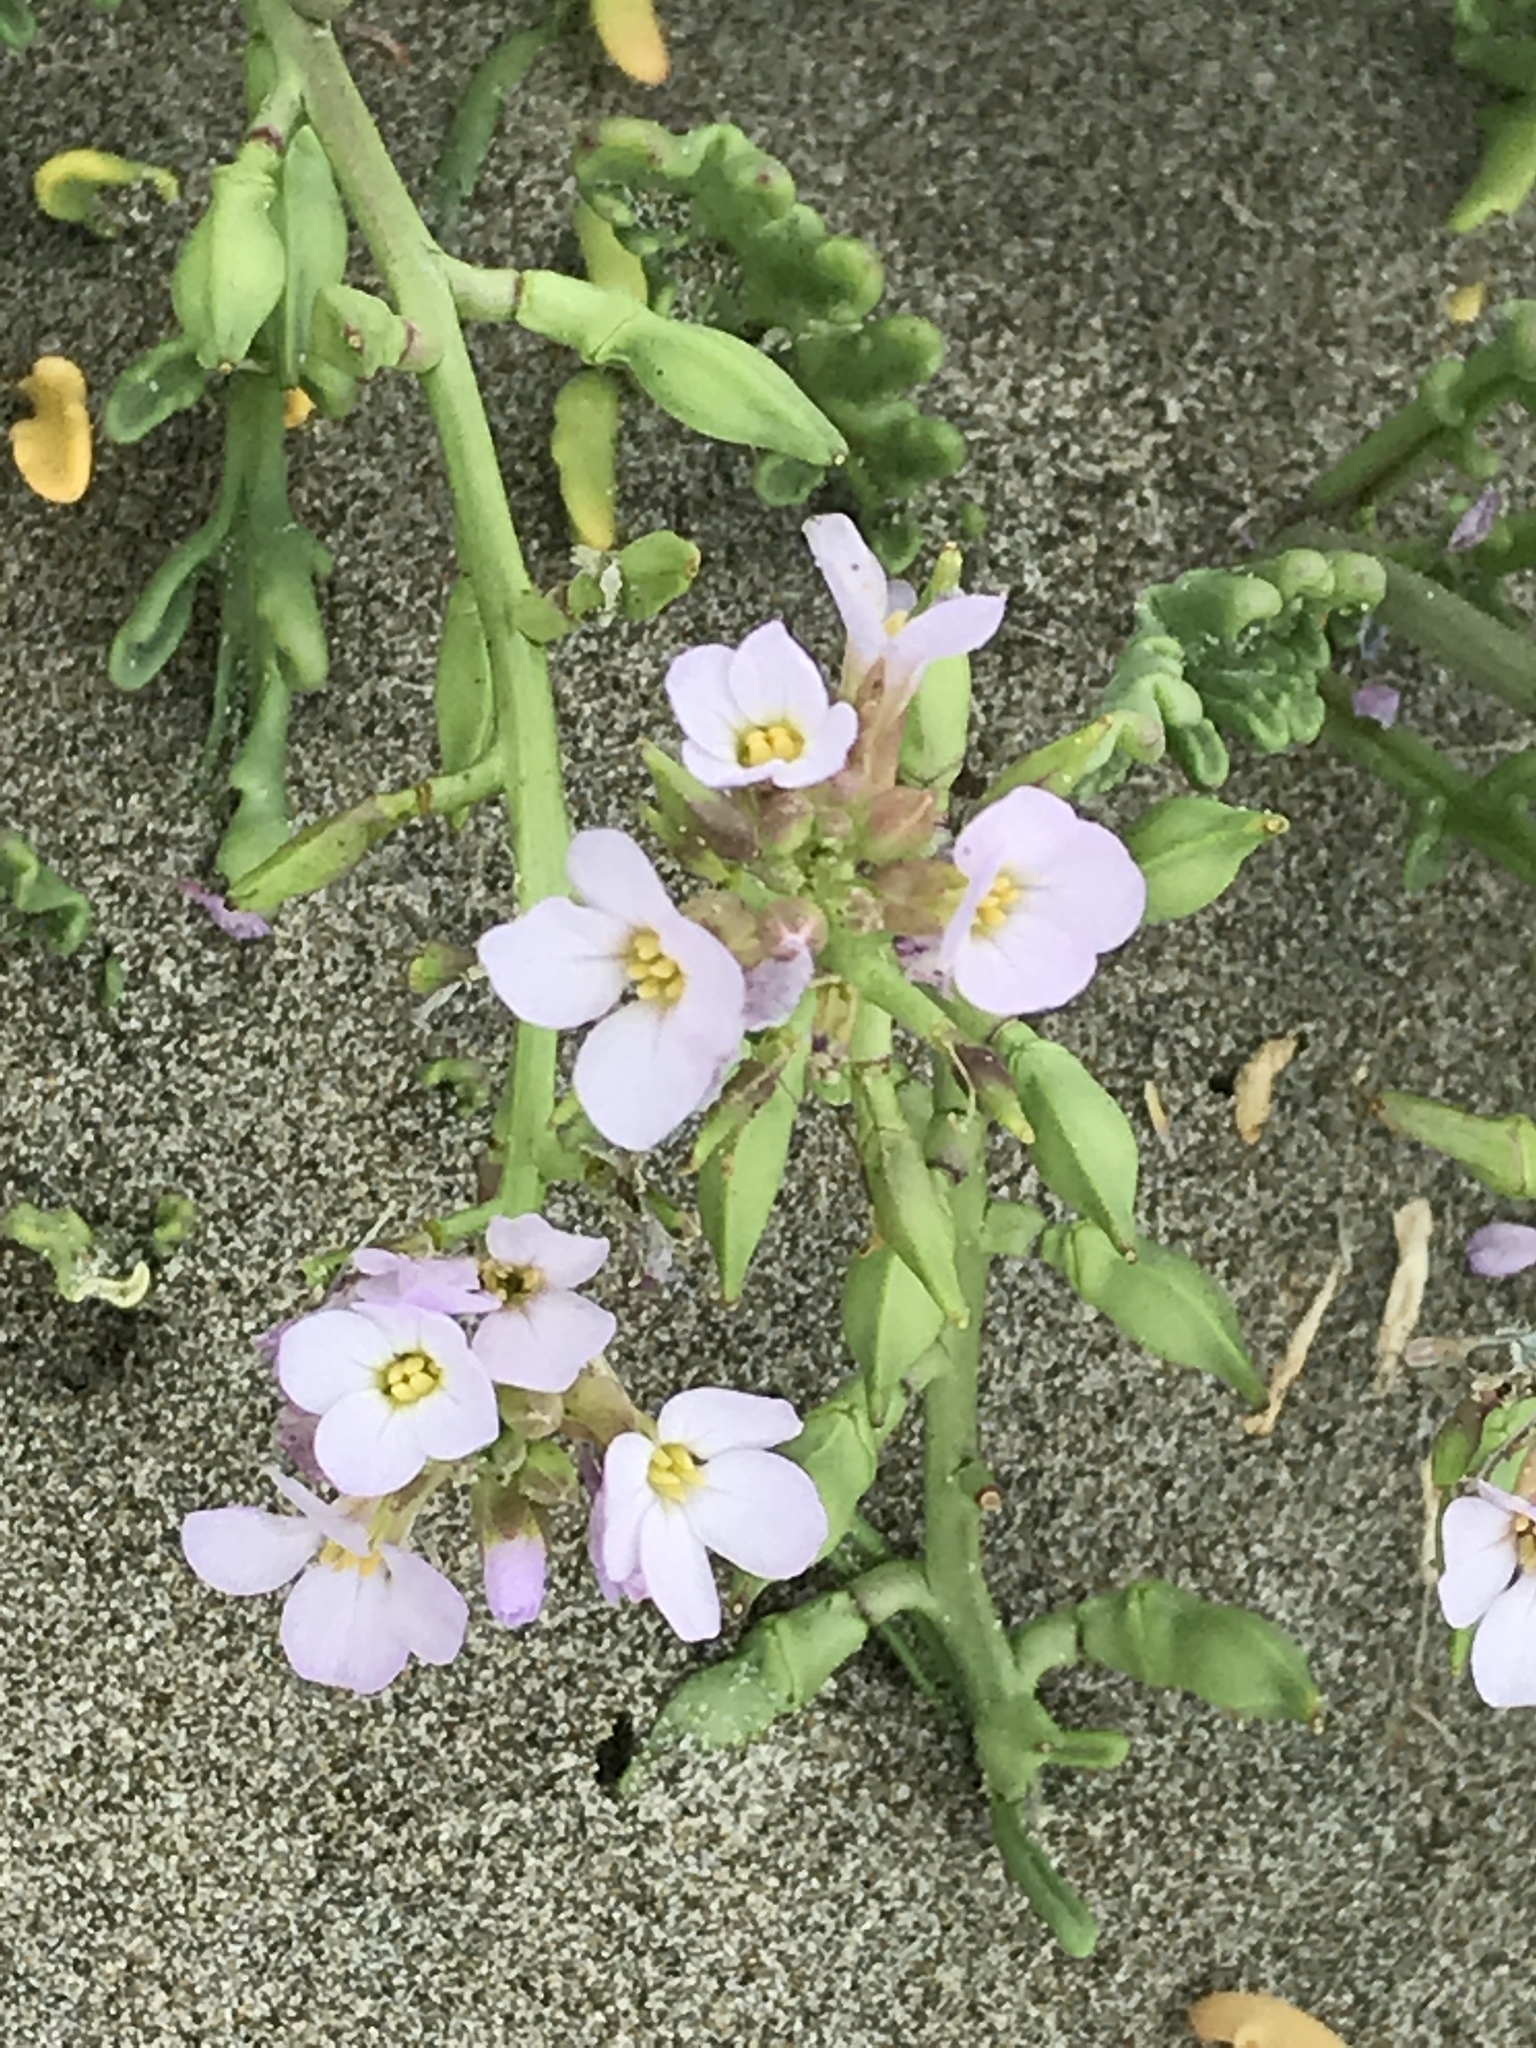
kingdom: Plantae
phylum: Tracheophyta
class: Magnoliopsida
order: Brassicales
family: Brassicaceae
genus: Cakile
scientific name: Cakile maritima
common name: Sea rocket
